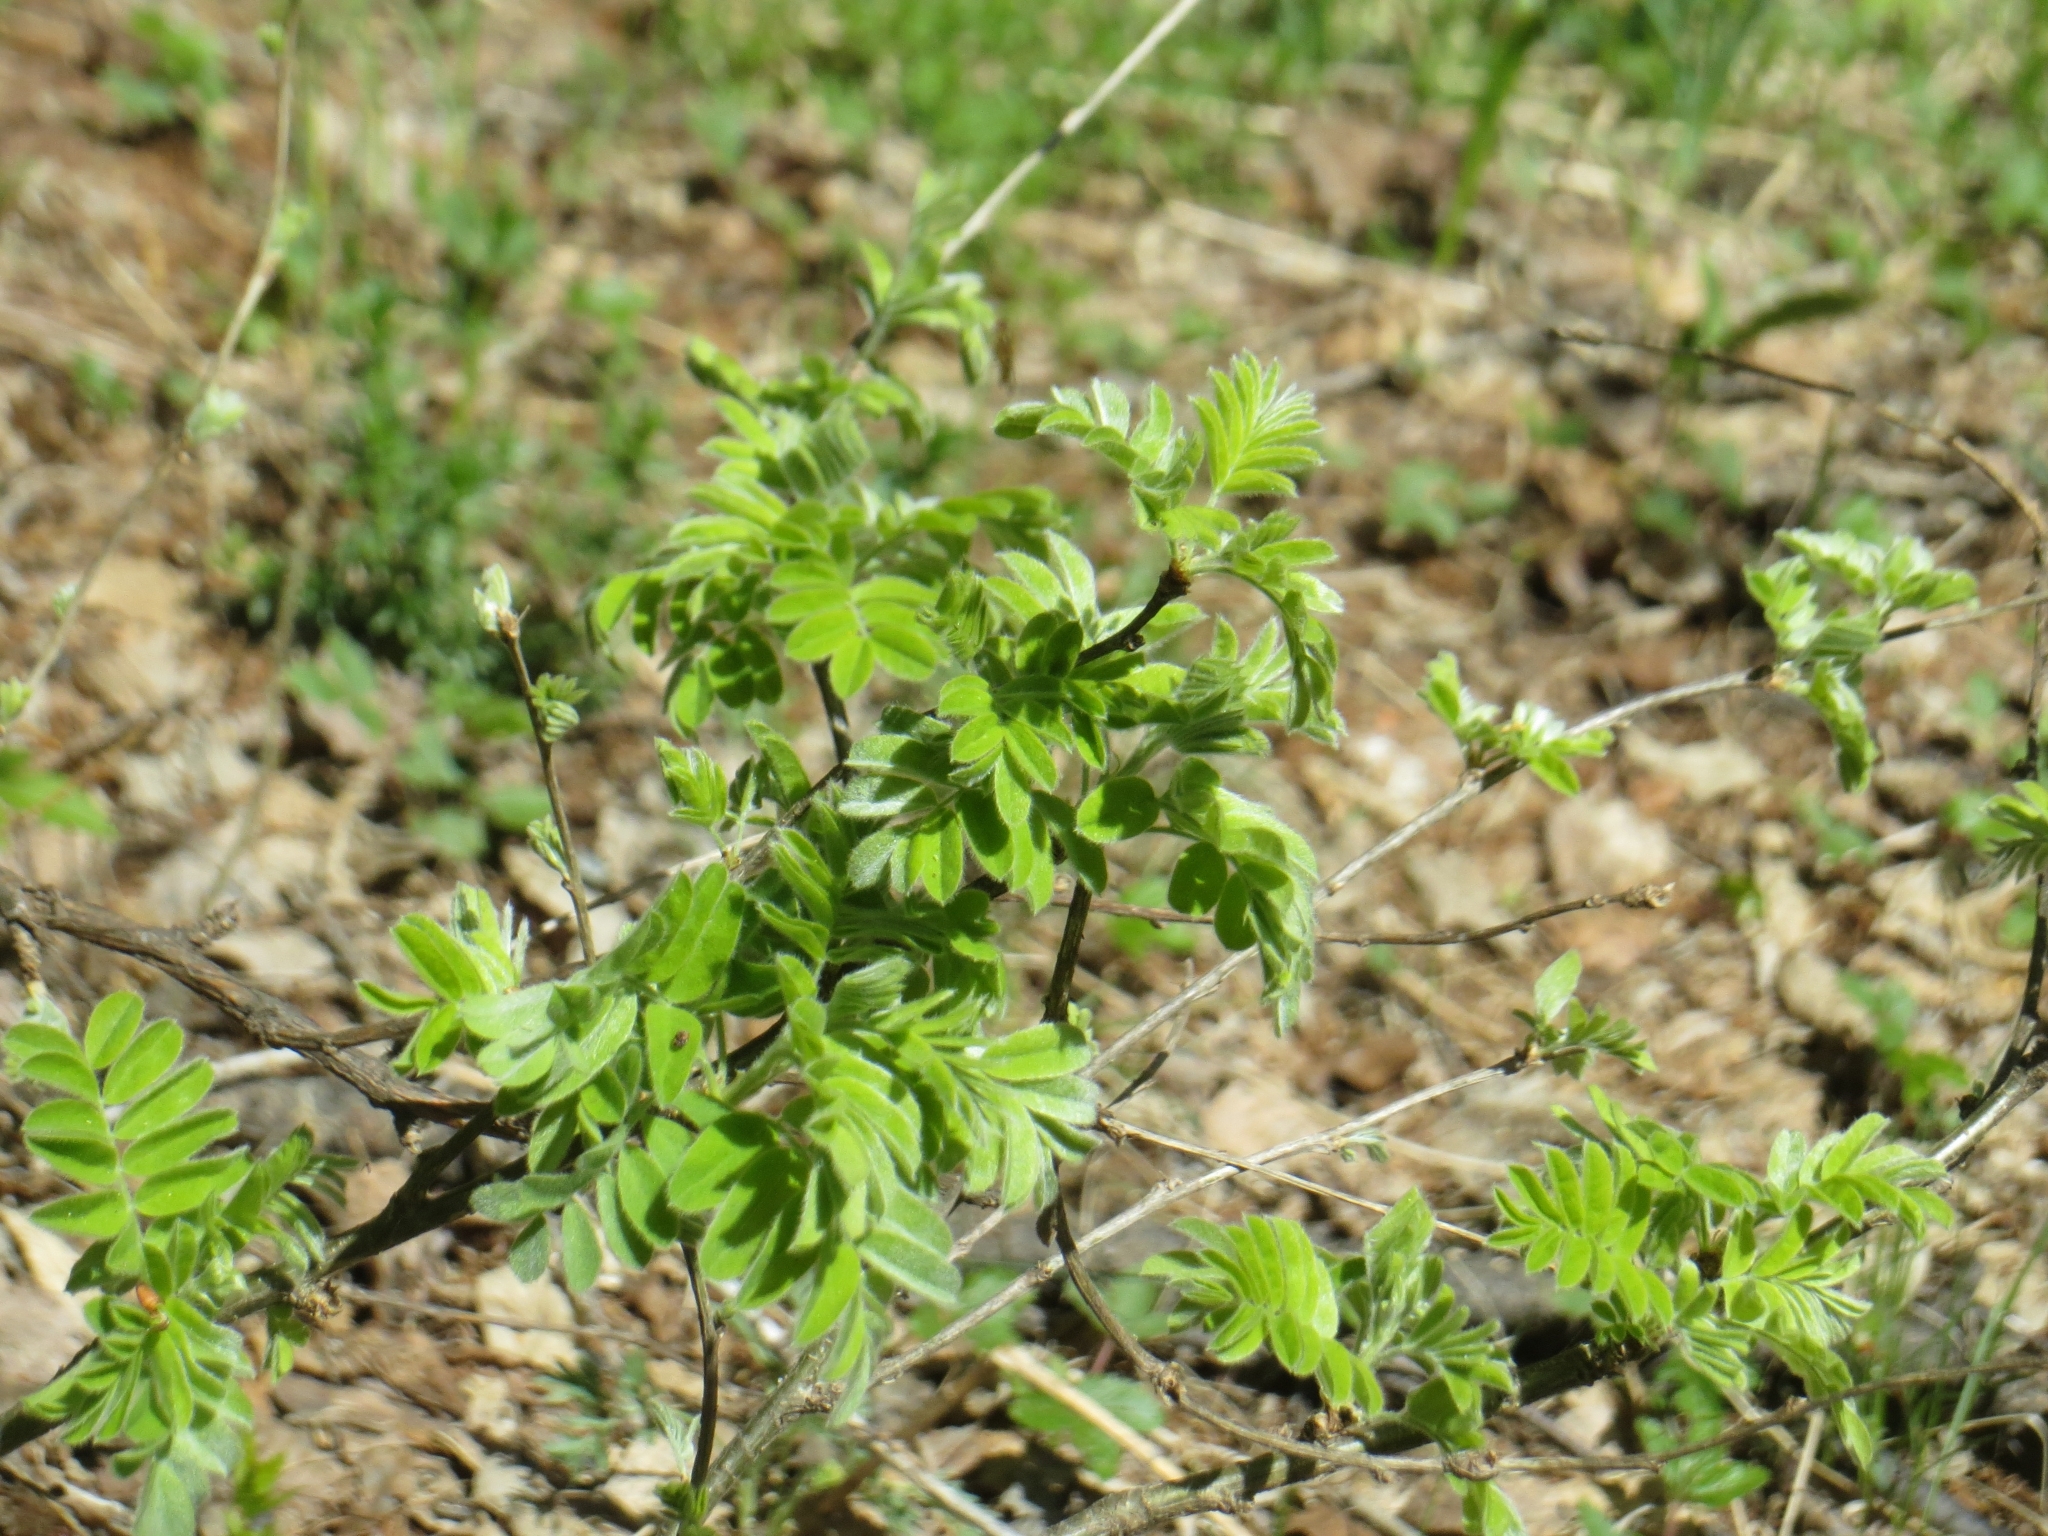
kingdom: Plantae
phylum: Tracheophyta
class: Magnoliopsida
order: Fabales
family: Fabaceae
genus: Caragana
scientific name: Caragana arborescens
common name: Siberian peashrub
